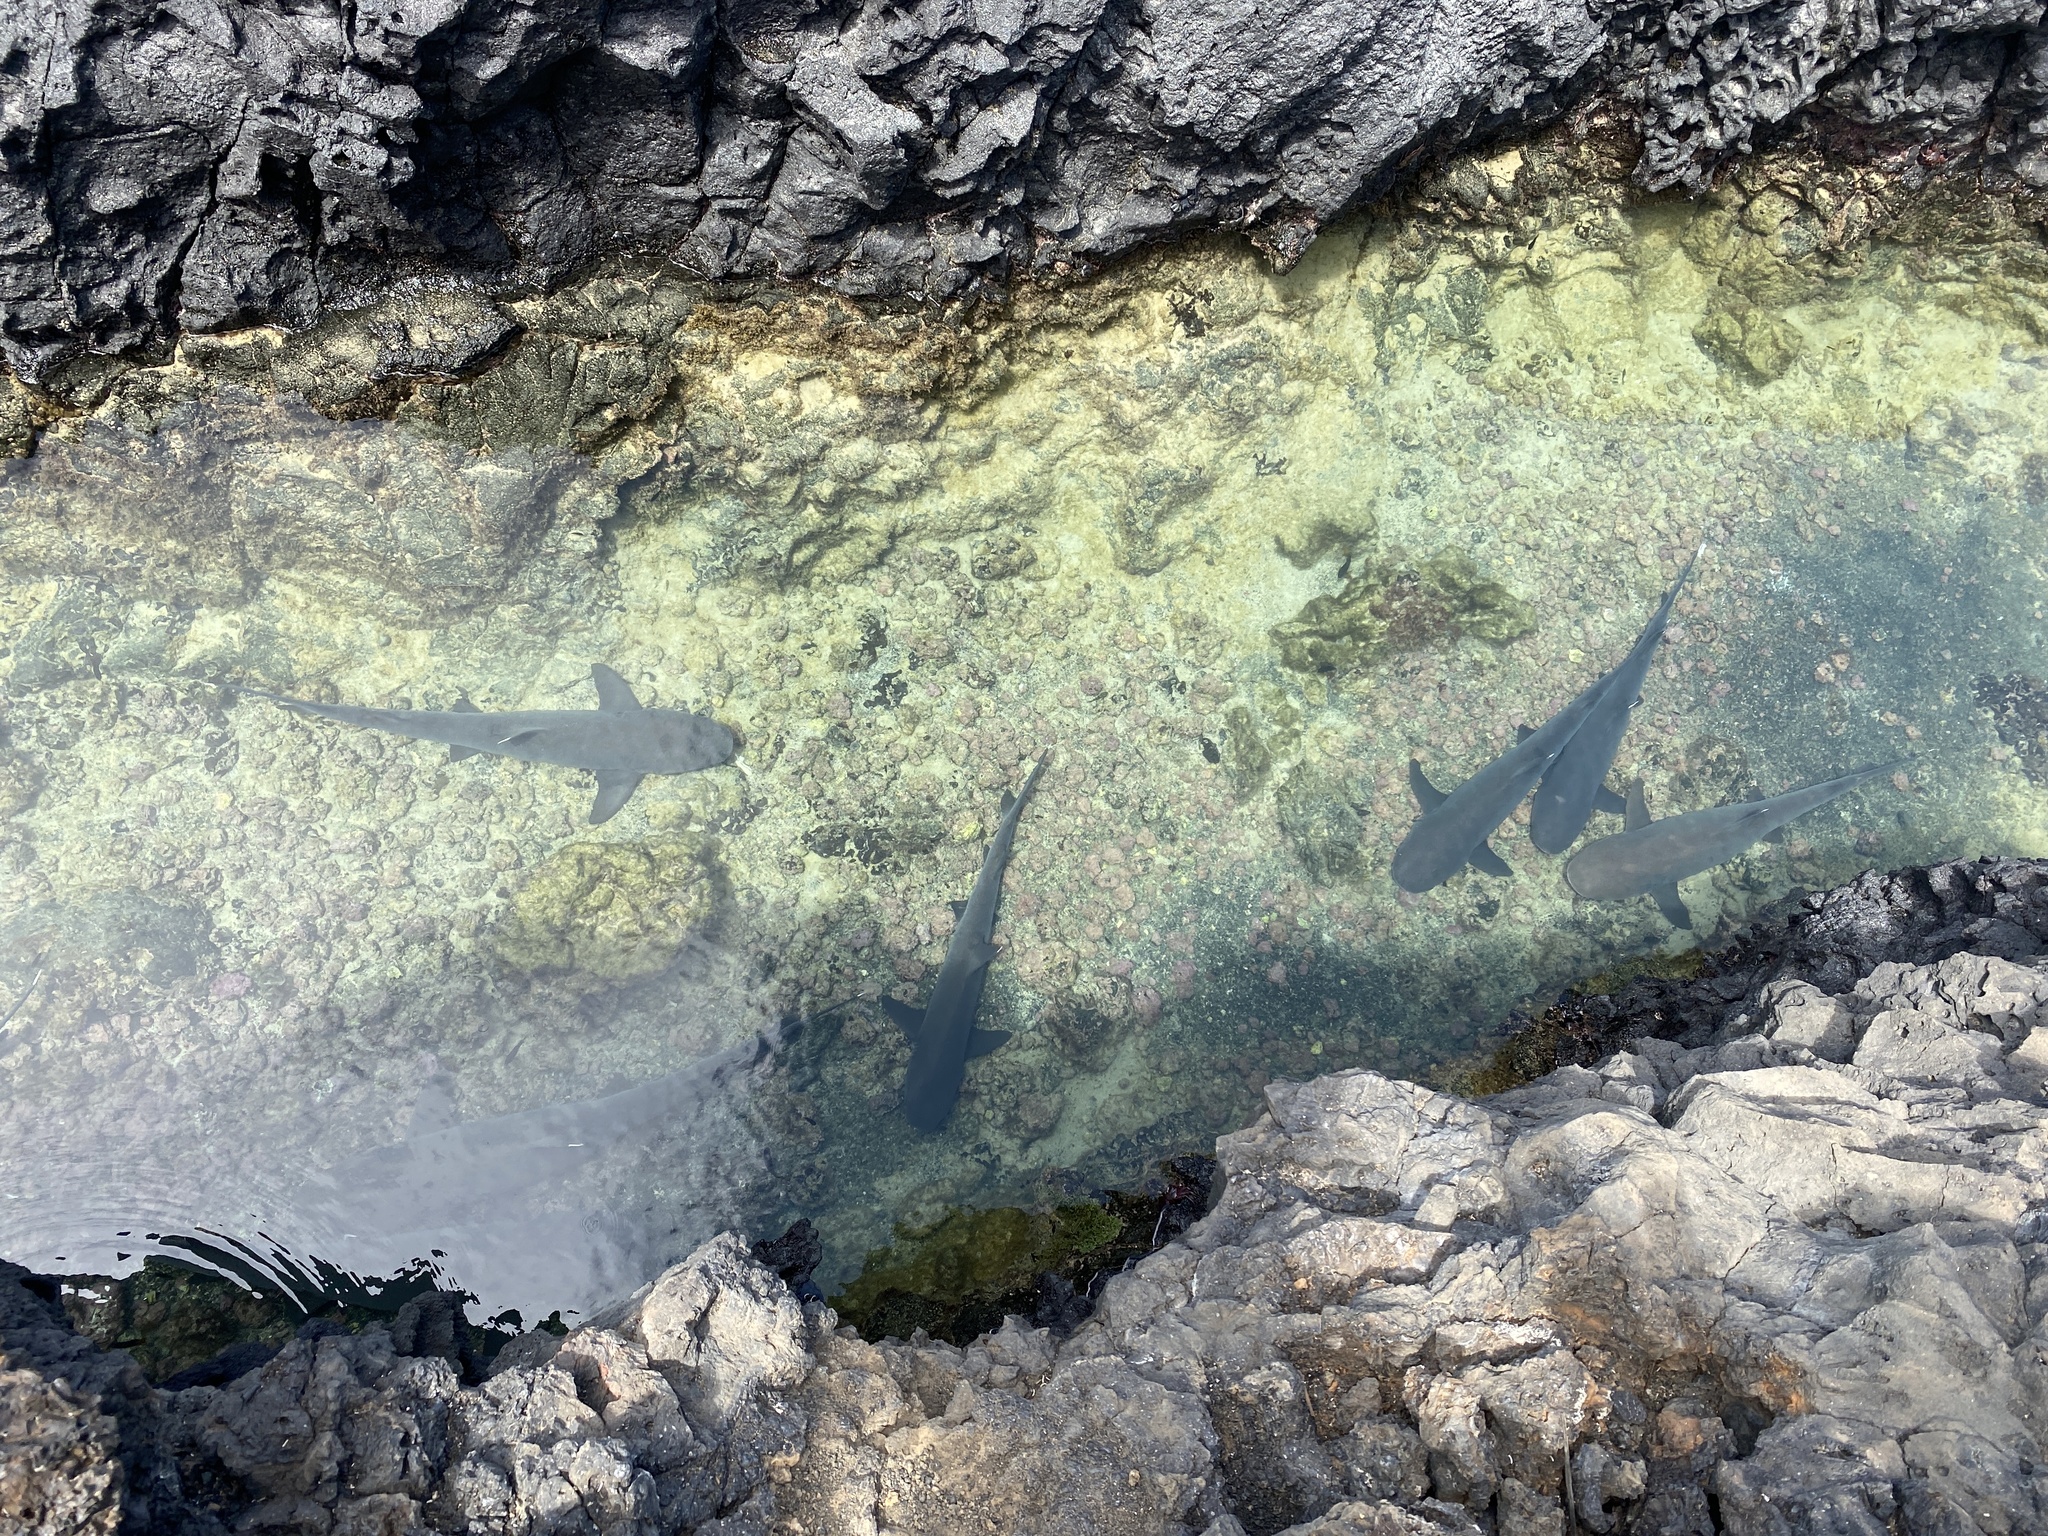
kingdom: Animalia
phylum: Chordata
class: Elasmobranchii
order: Carcharhiniformes
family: Carcharhinidae
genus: Triaenodon
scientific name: Triaenodon obesus
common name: Whitetip reef shark
